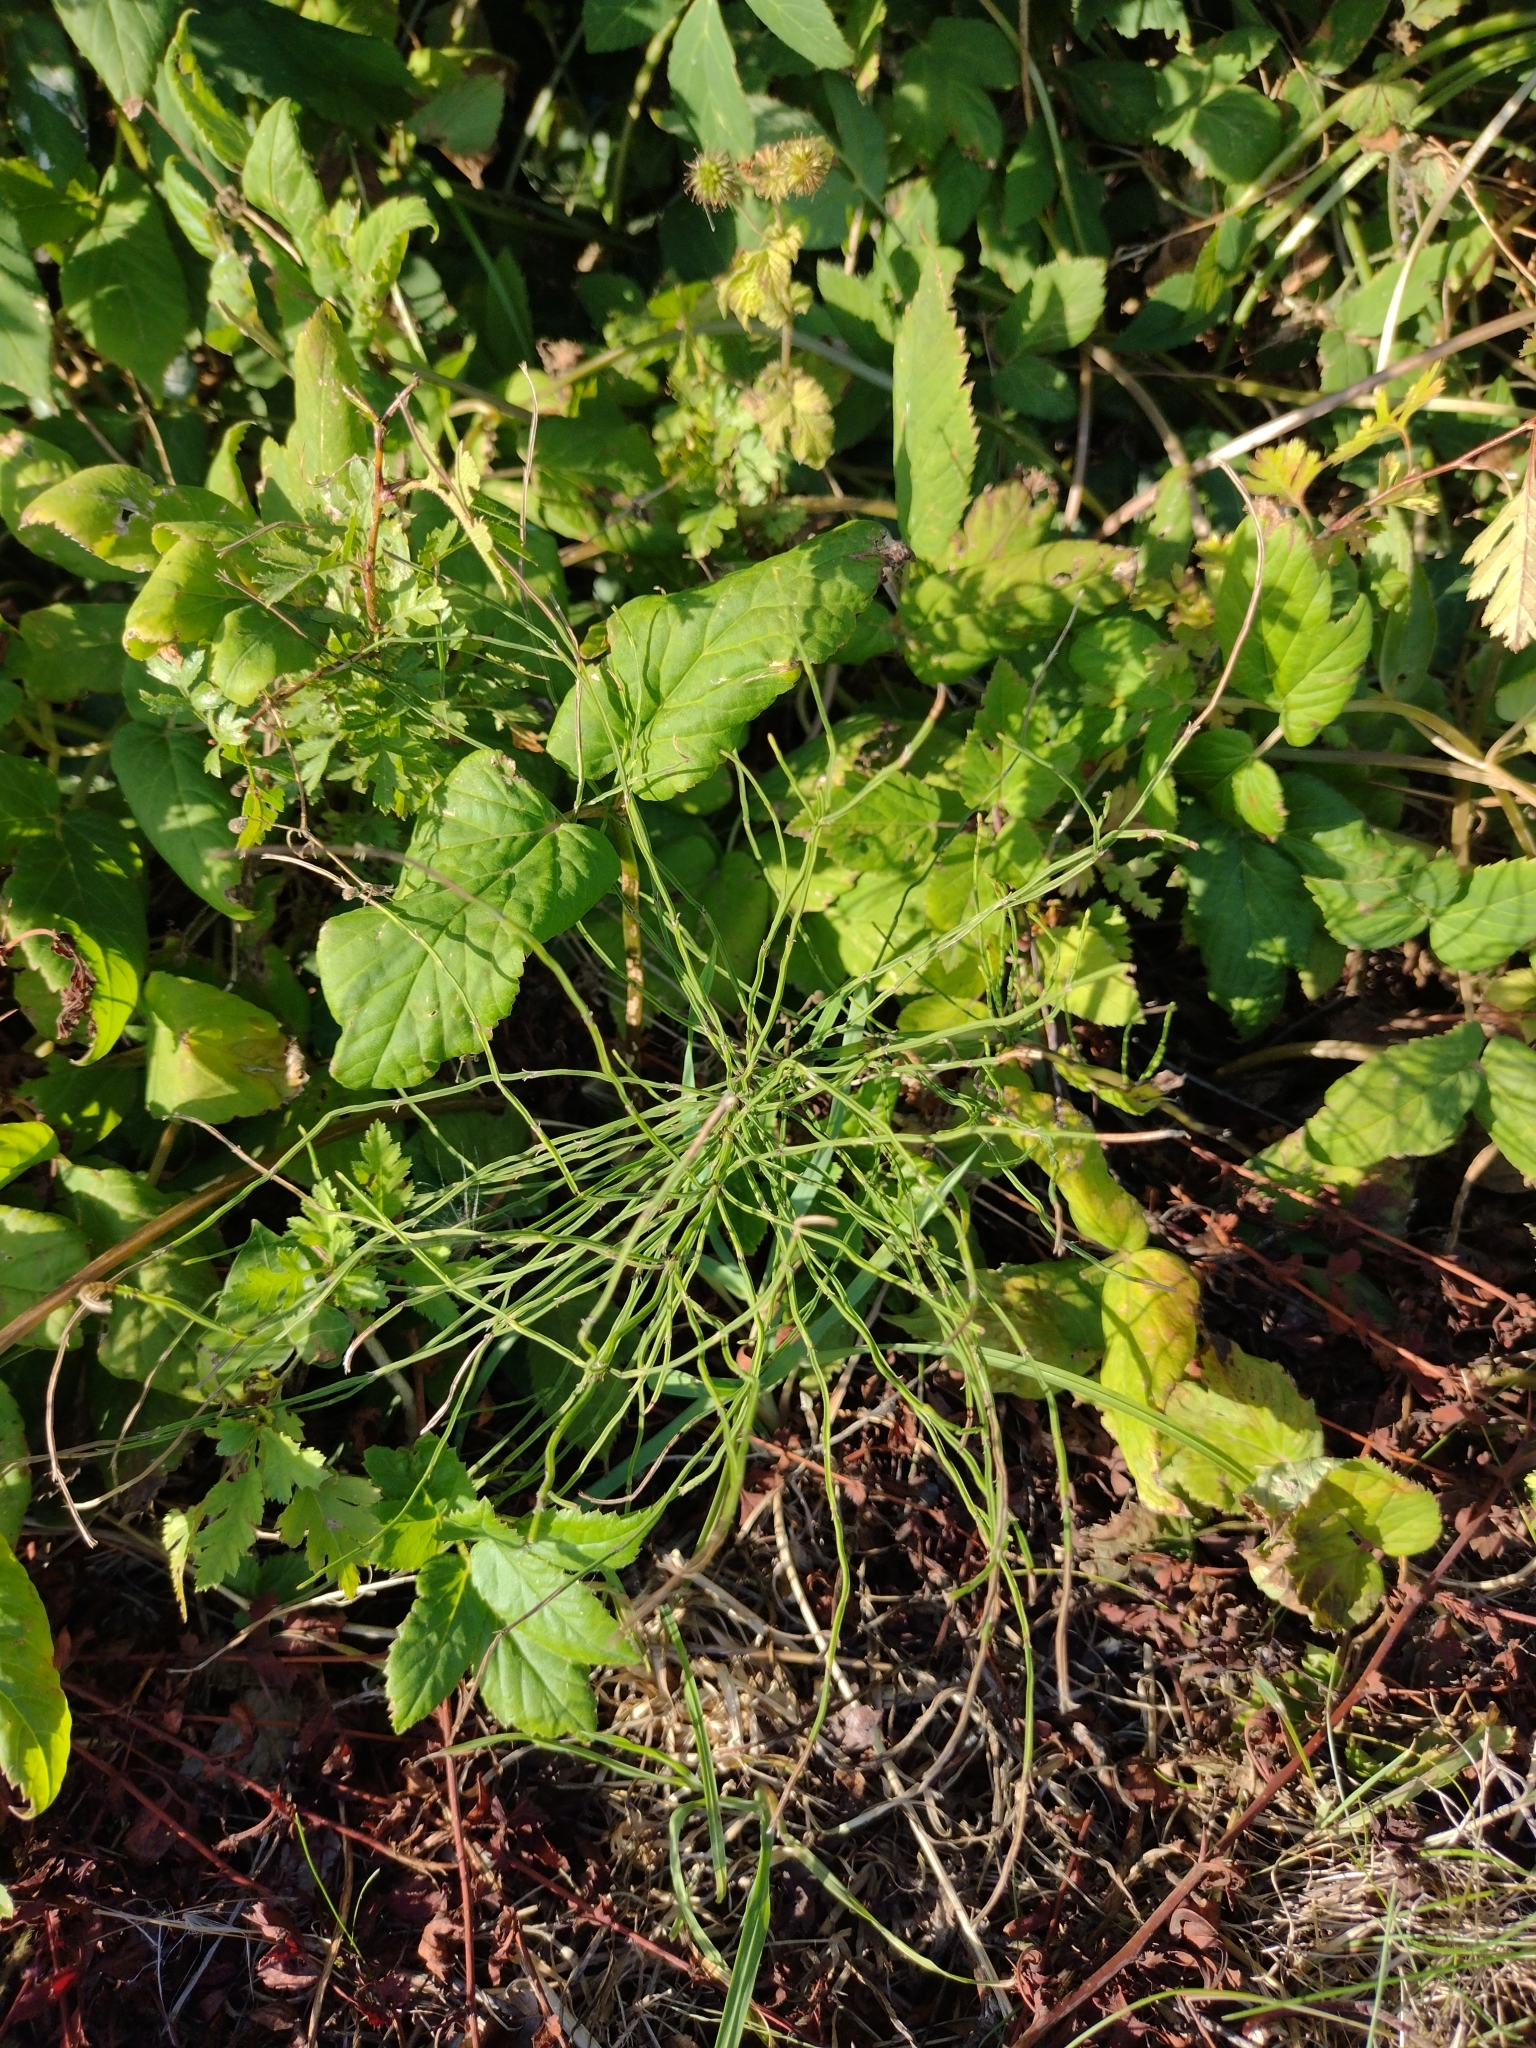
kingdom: Plantae
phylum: Tracheophyta
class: Polypodiopsida
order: Equisetales
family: Equisetaceae
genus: Equisetum
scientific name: Equisetum arvense
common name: Field horsetail
